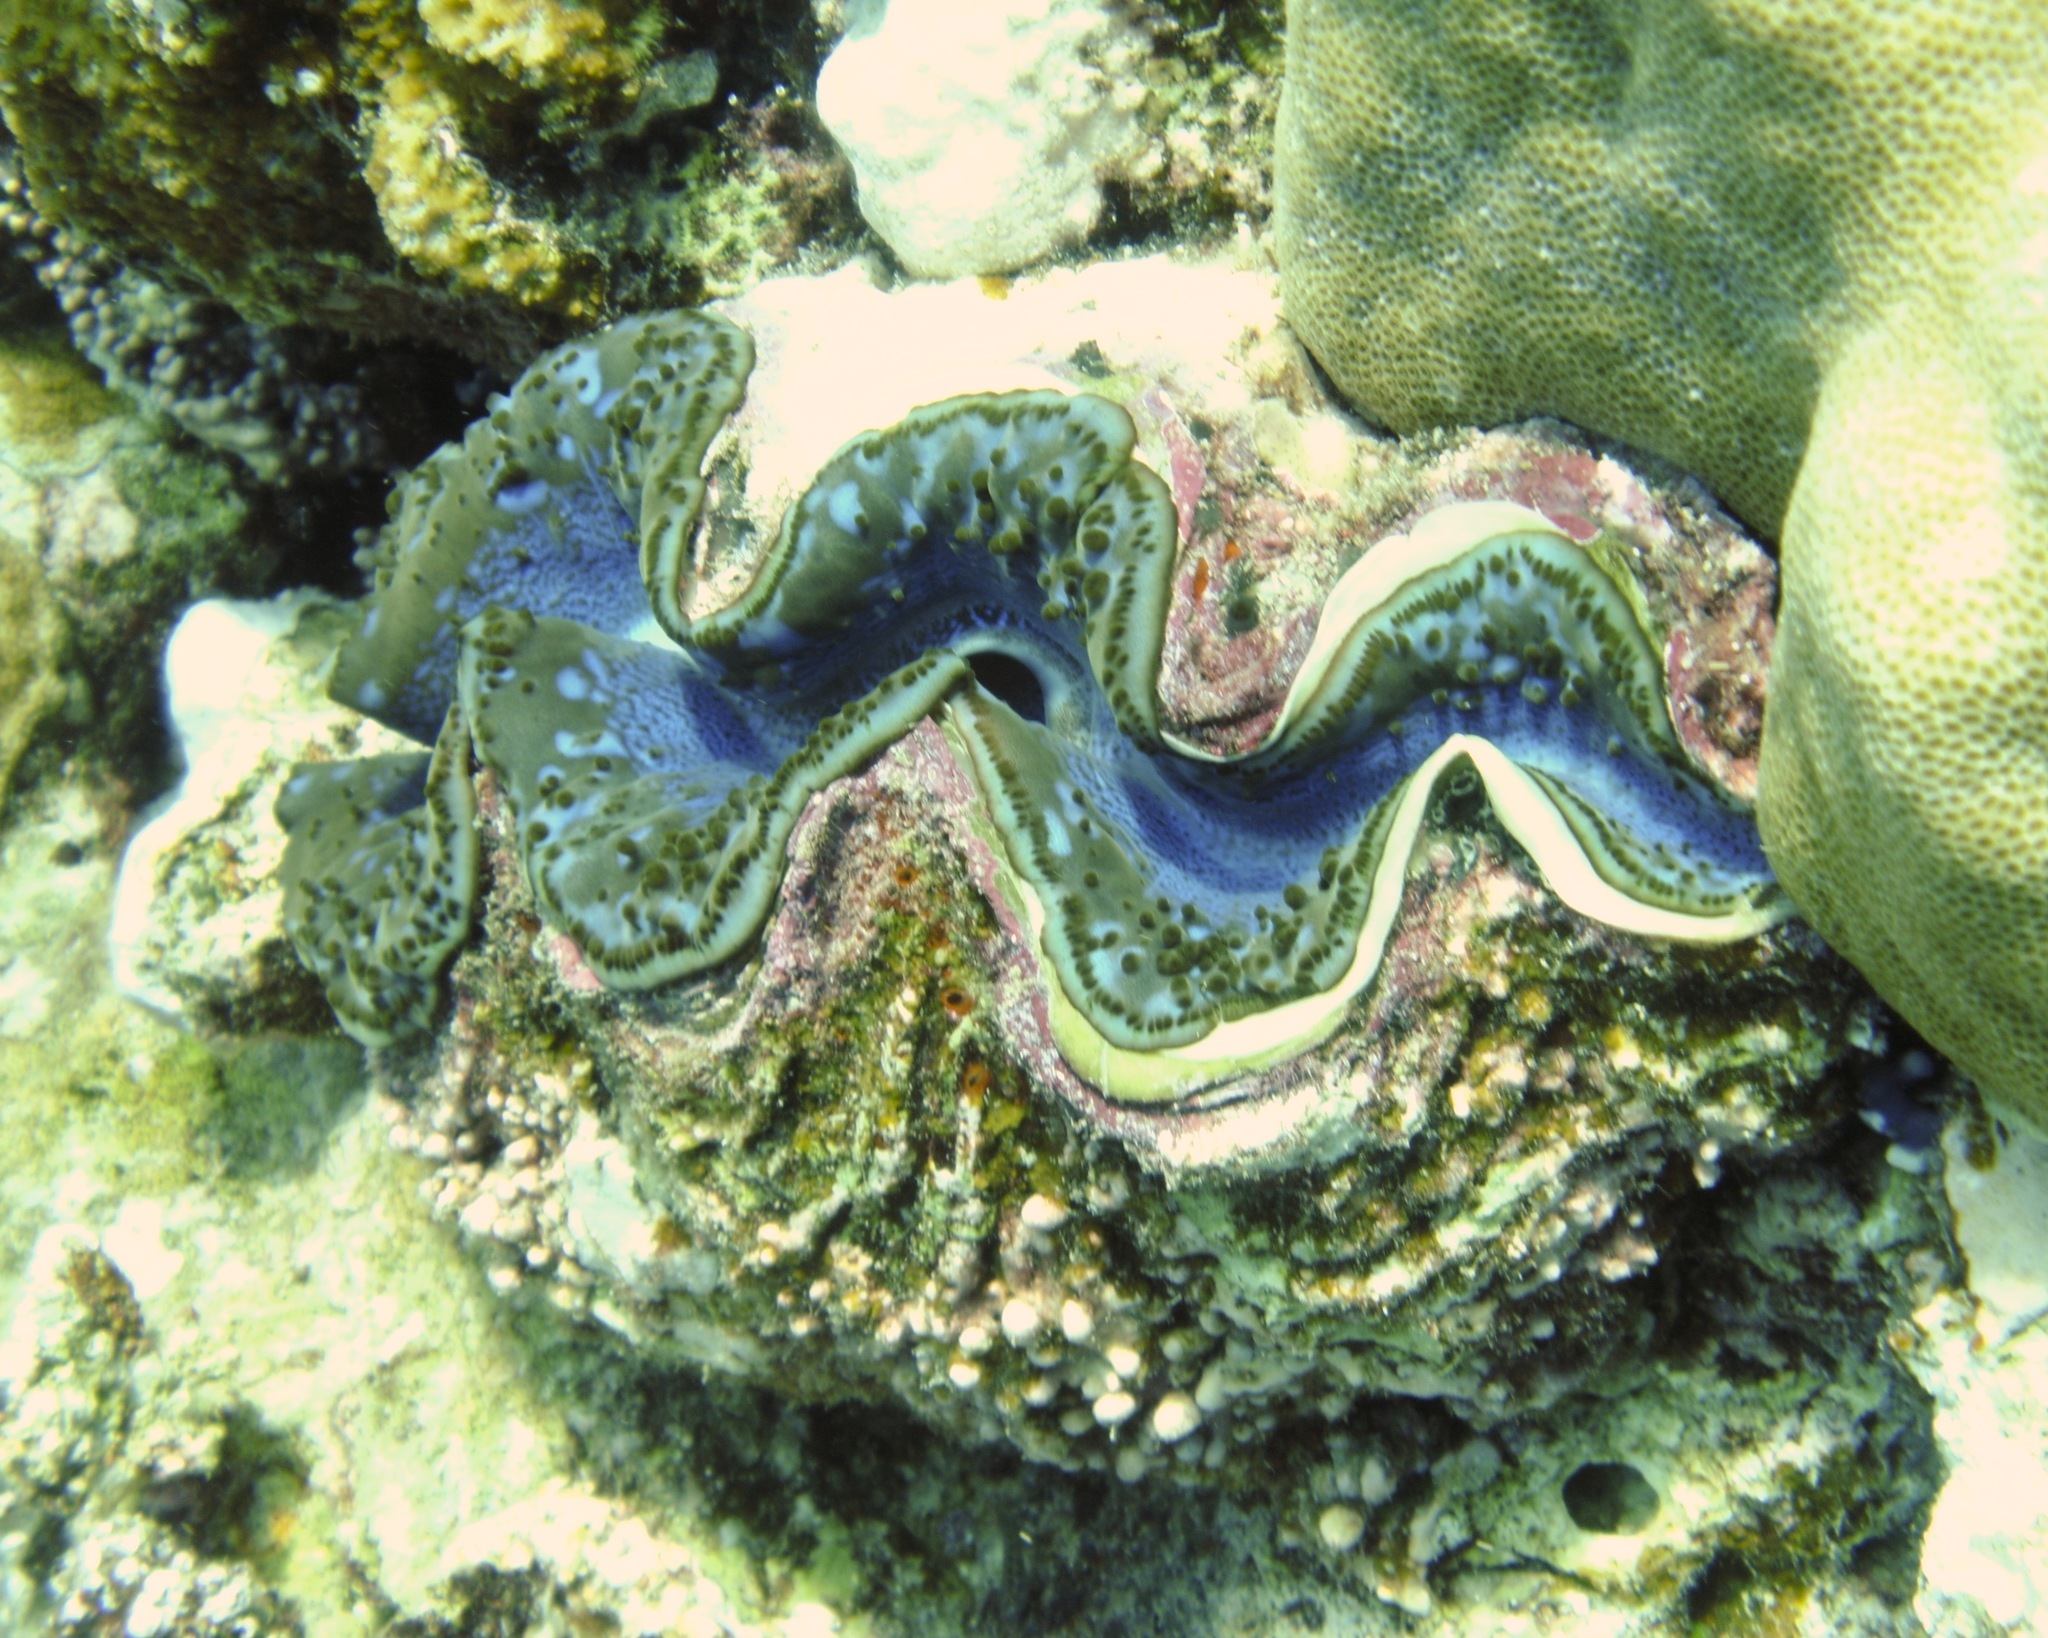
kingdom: Animalia
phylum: Mollusca
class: Bivalvia
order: Cardiida
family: Cardiidae
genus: Tridacna
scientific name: Tridacna maxima
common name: Small giant clam
